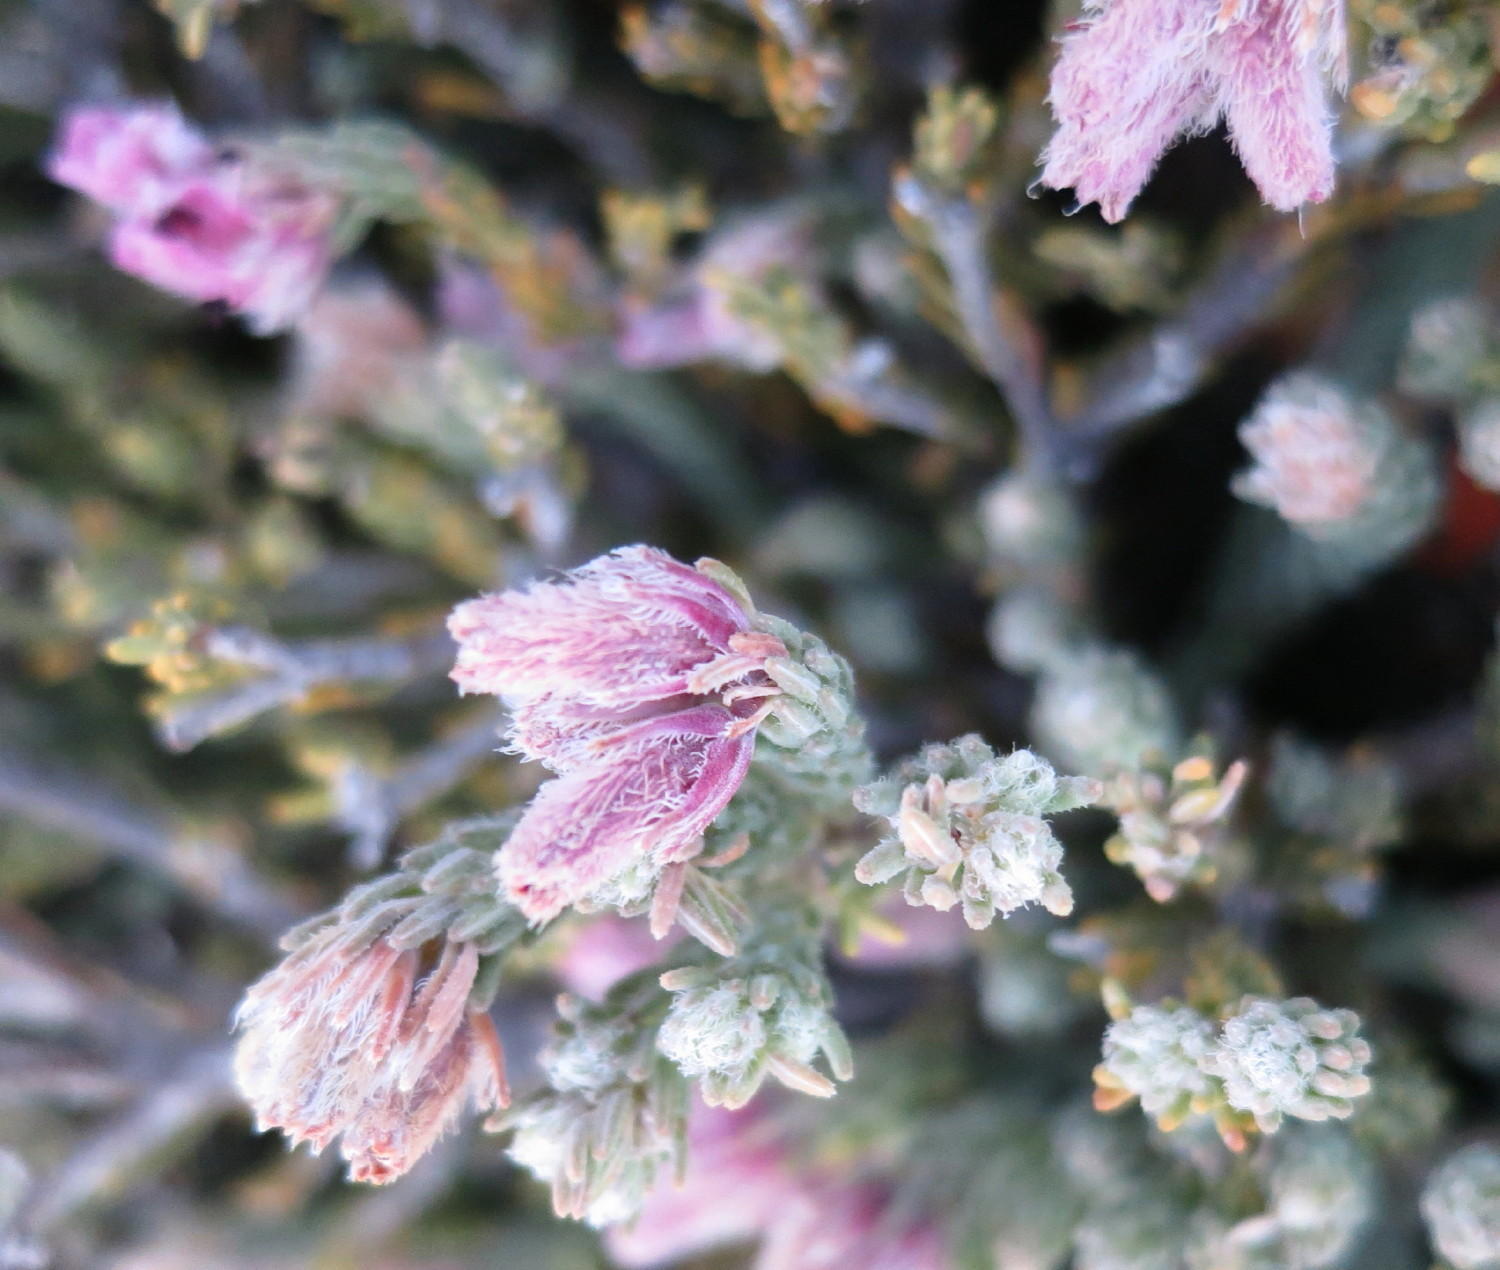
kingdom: Plantae
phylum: Tracheophyta
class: Magnoliopsida
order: Ericales
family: Ericaceae
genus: Erica
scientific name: Erica strigilifolia
